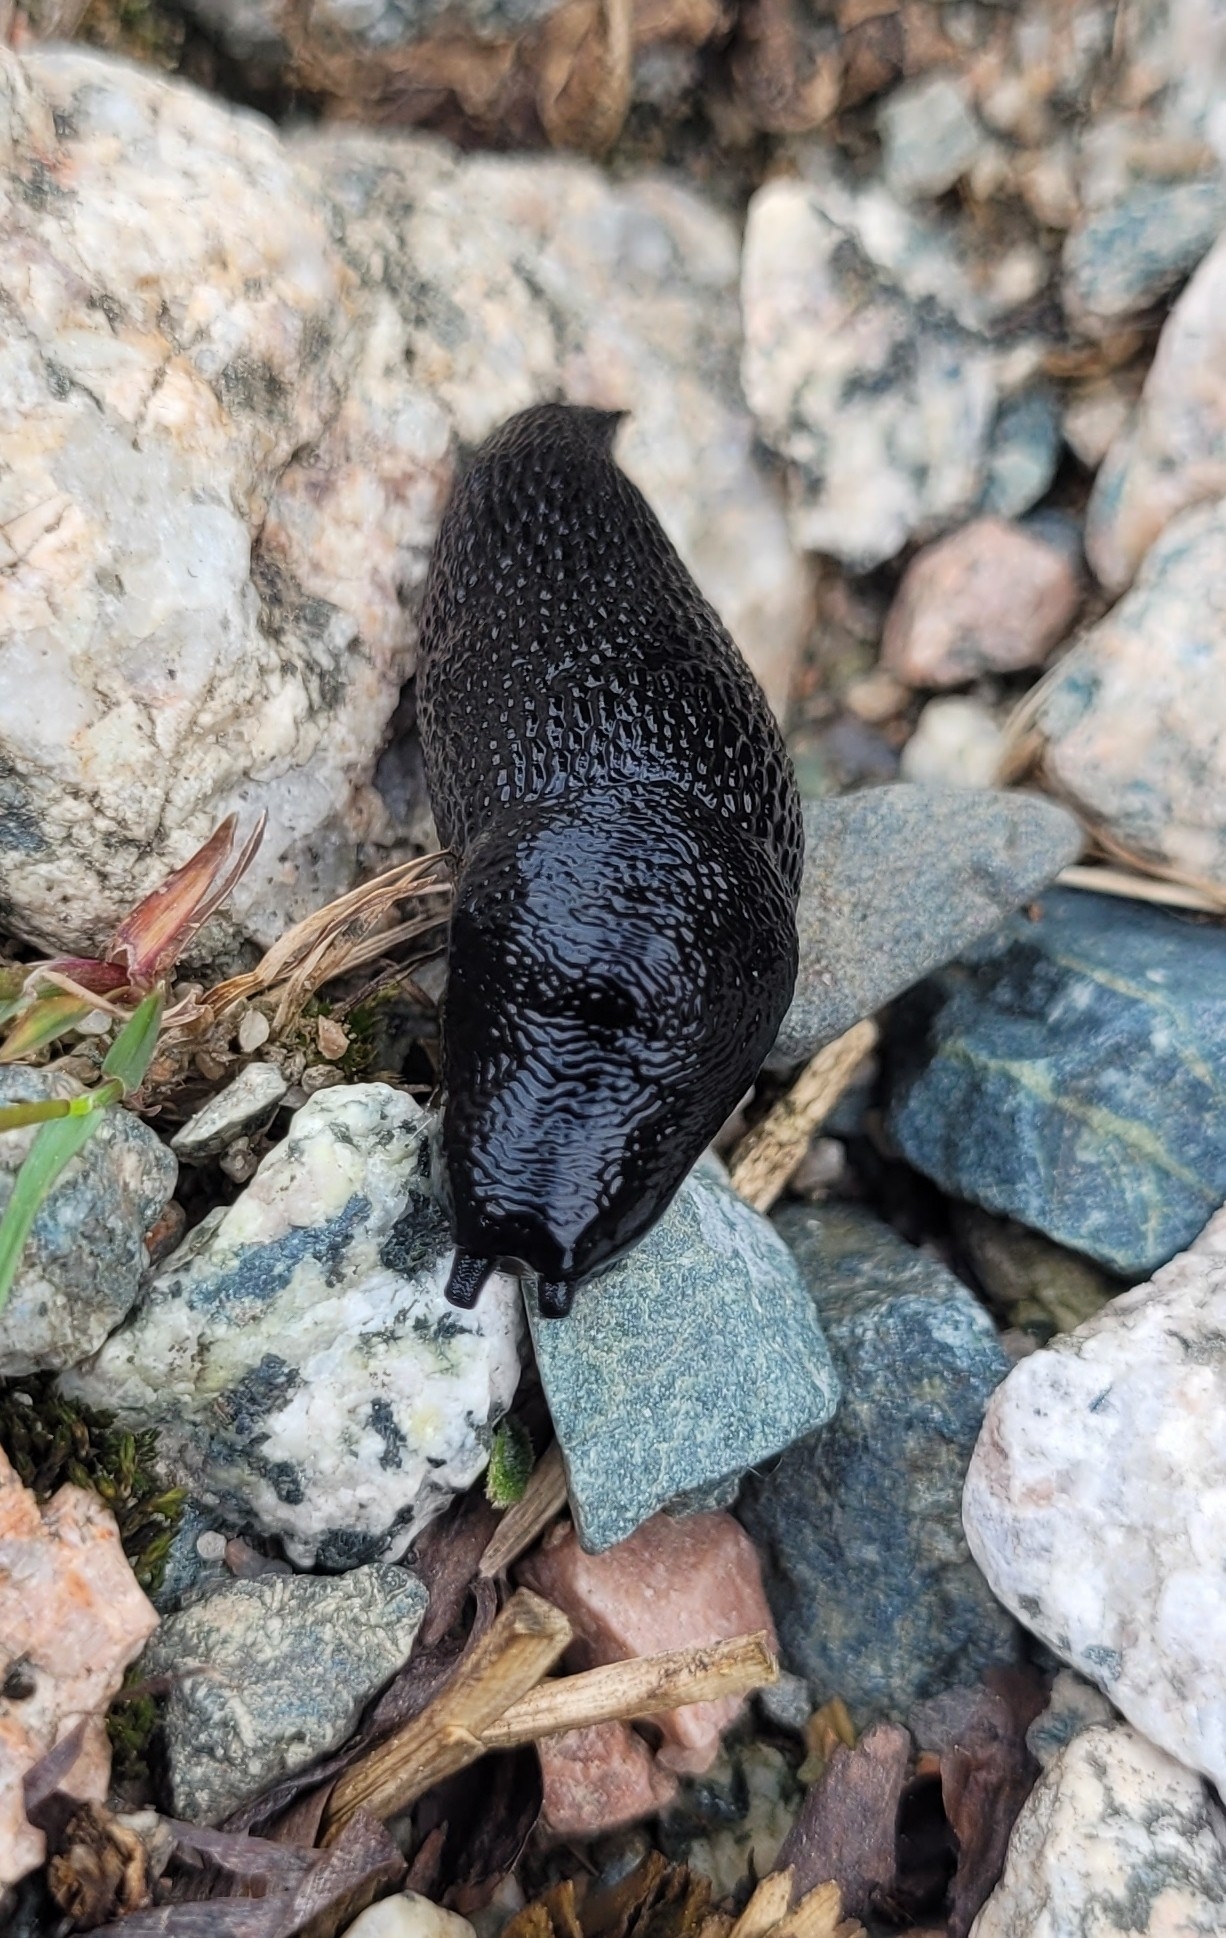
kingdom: Animalia
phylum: Mollusca
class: Gastropoda
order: Stylommatophora
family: Limacidae
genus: Turcomilax
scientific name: Turcomilax turkestanus
